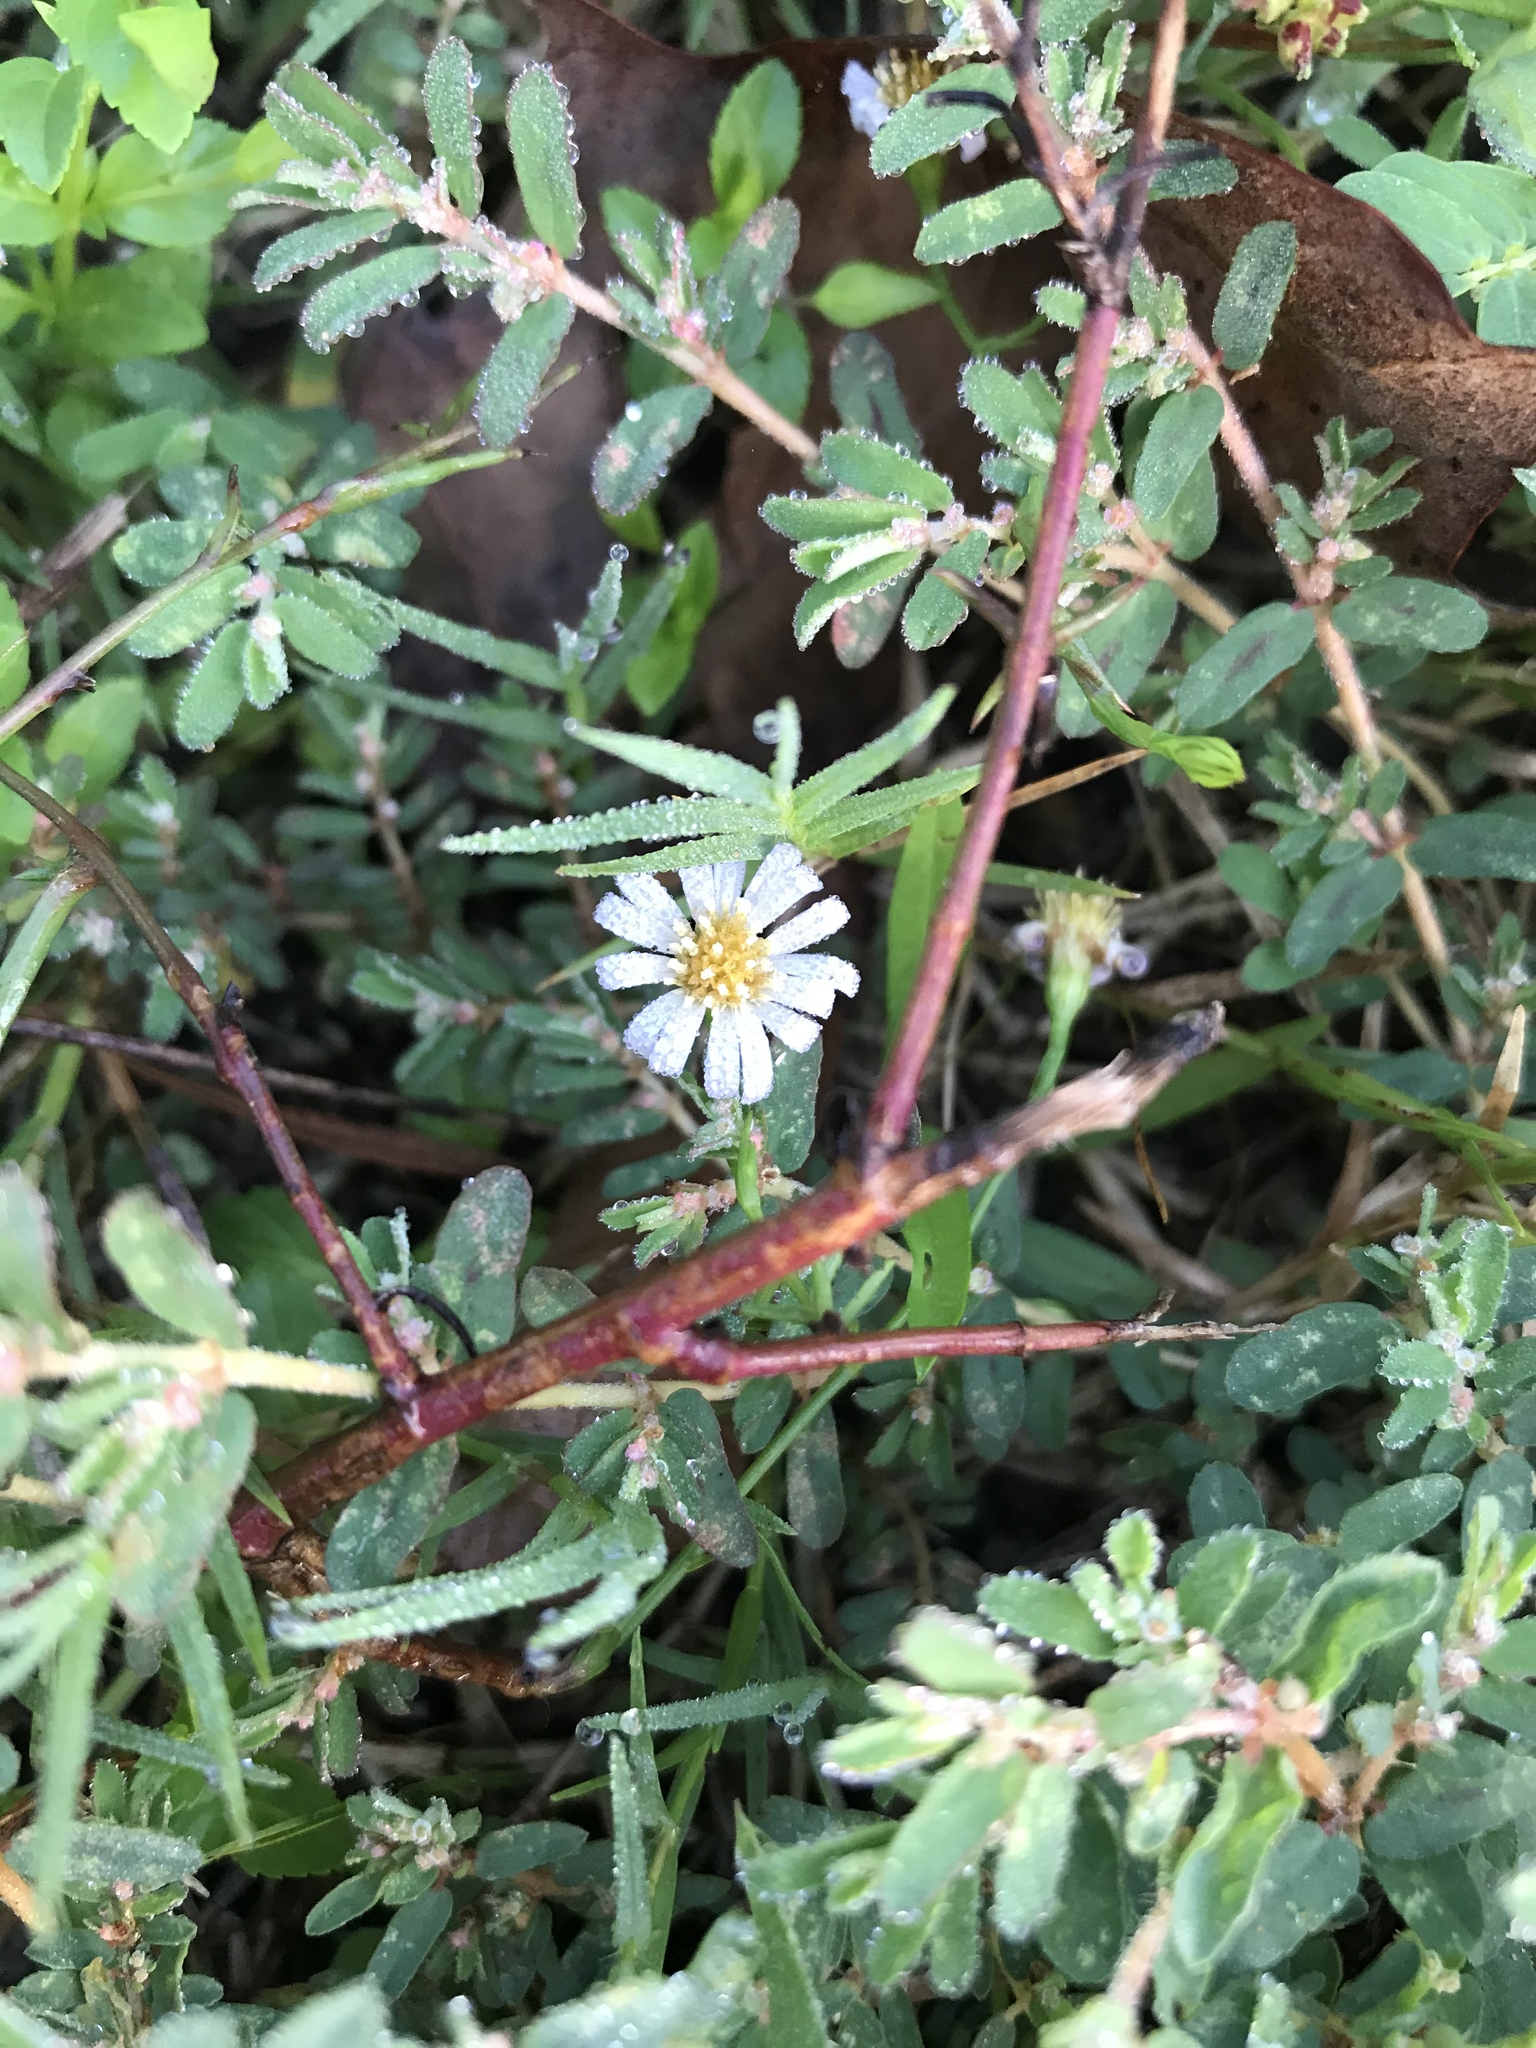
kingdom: Plantae
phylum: Tracheophyta
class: Magnoliopsida
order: Asterales
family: Asteraceae
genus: Symphyotrichum
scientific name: Symphyotrichum divaricatum
